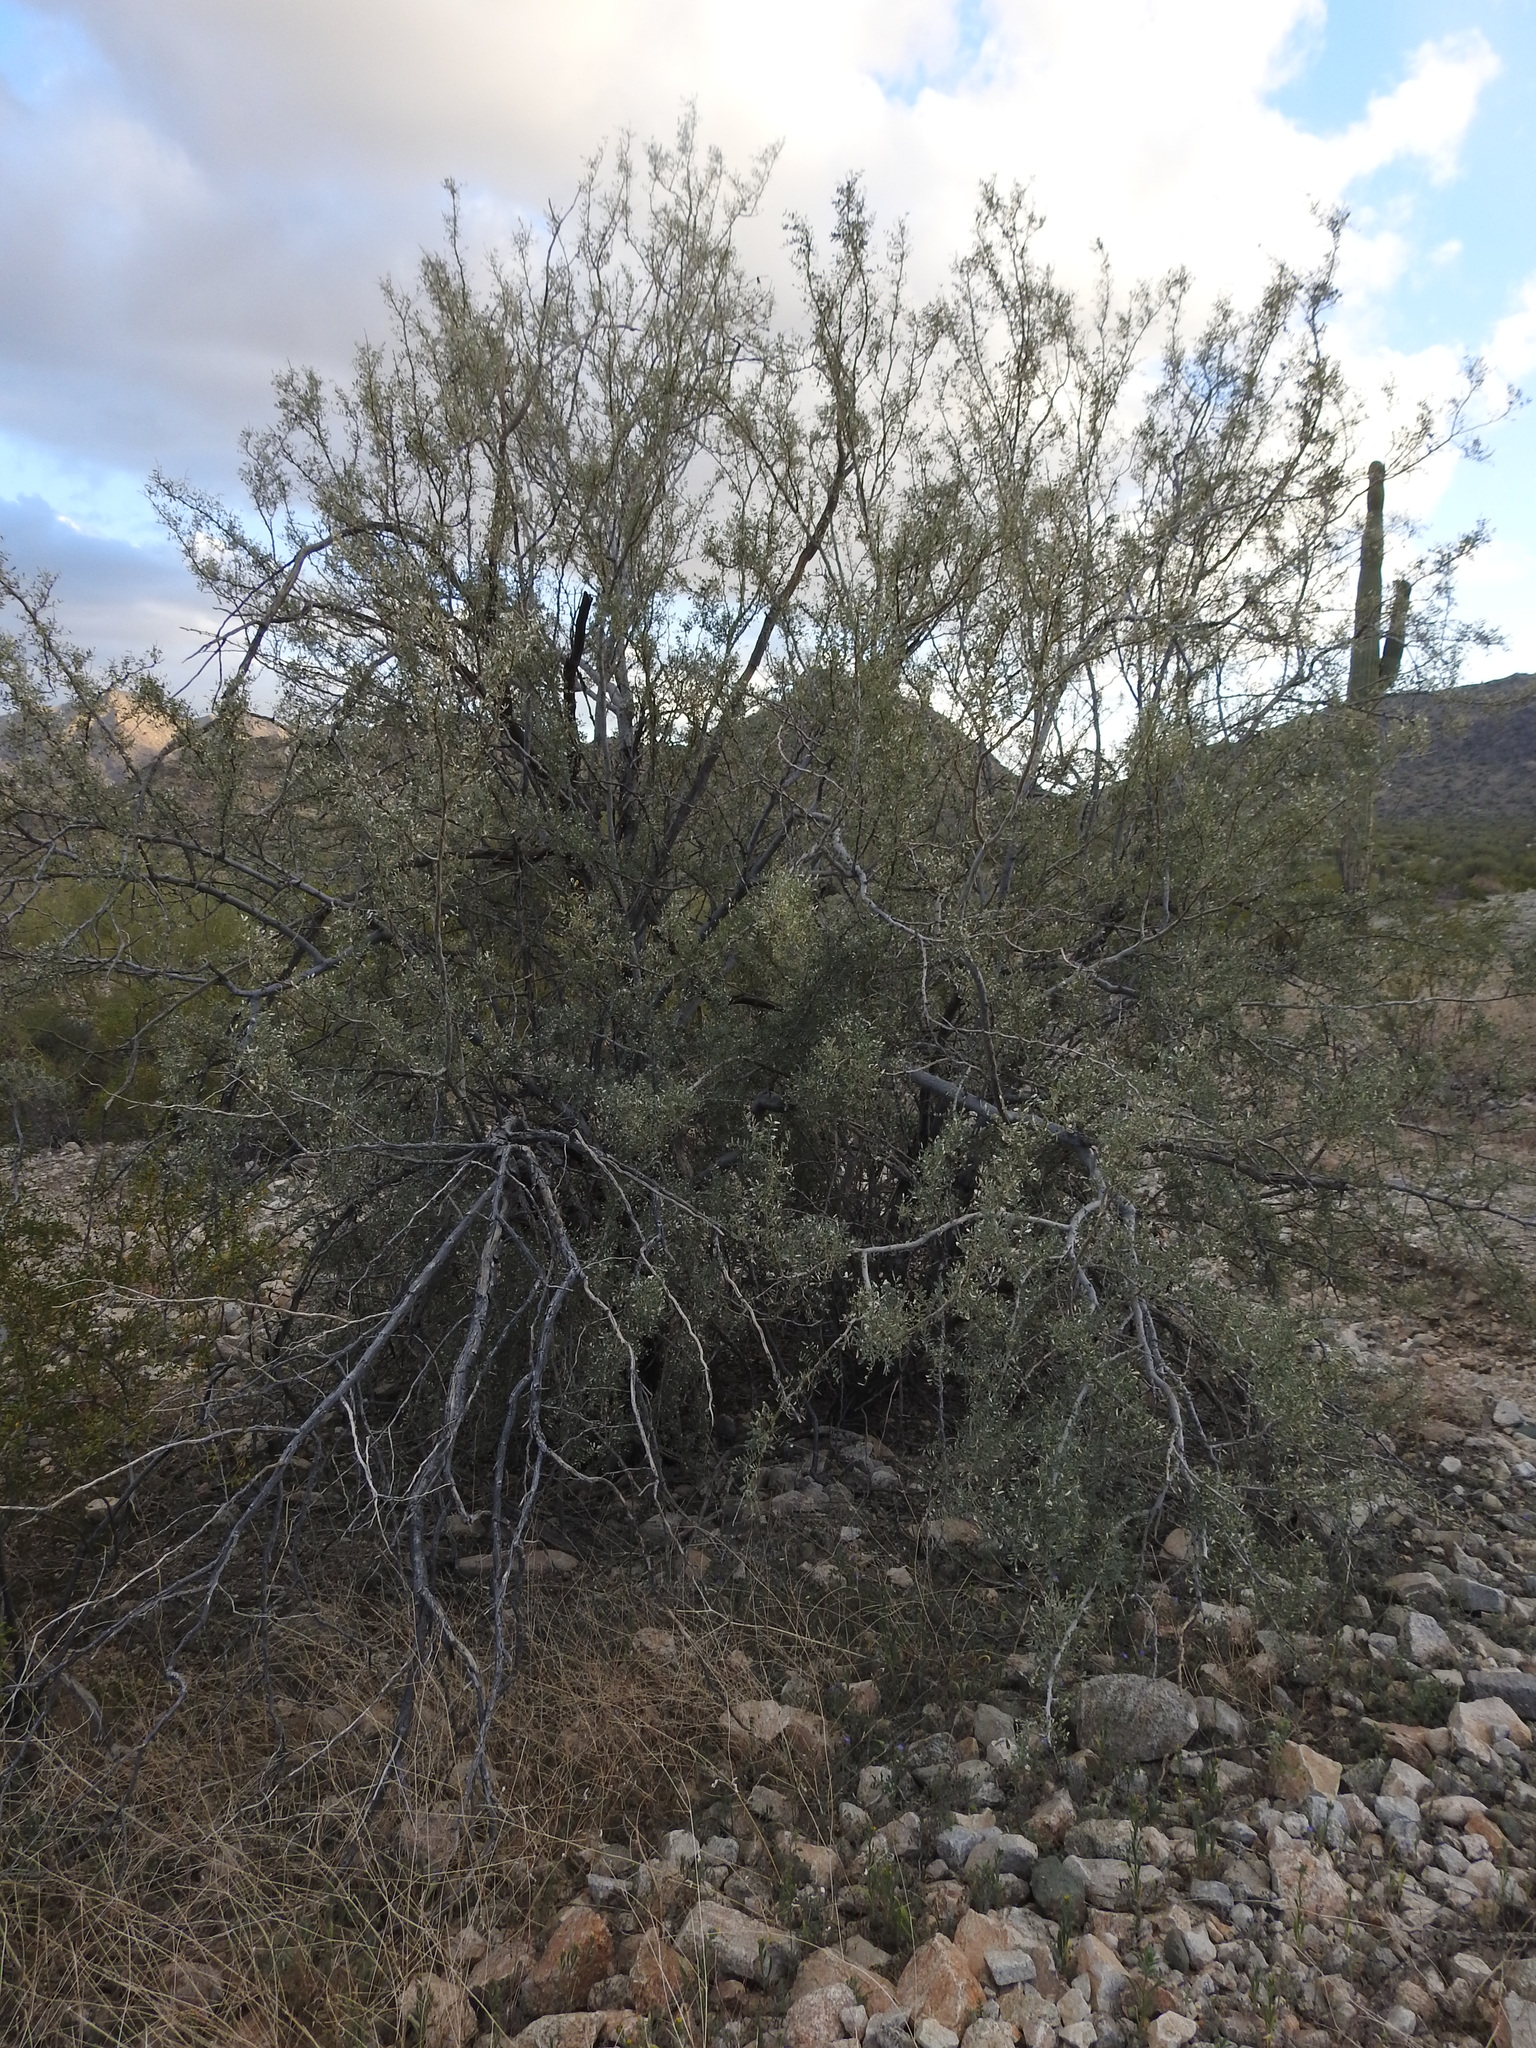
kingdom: Plantae
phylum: Tracheophyta
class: Magnoliopsida
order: Fabales
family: Fabaceae
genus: Olneya
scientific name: Olneya tesota
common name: Desert ironwood
